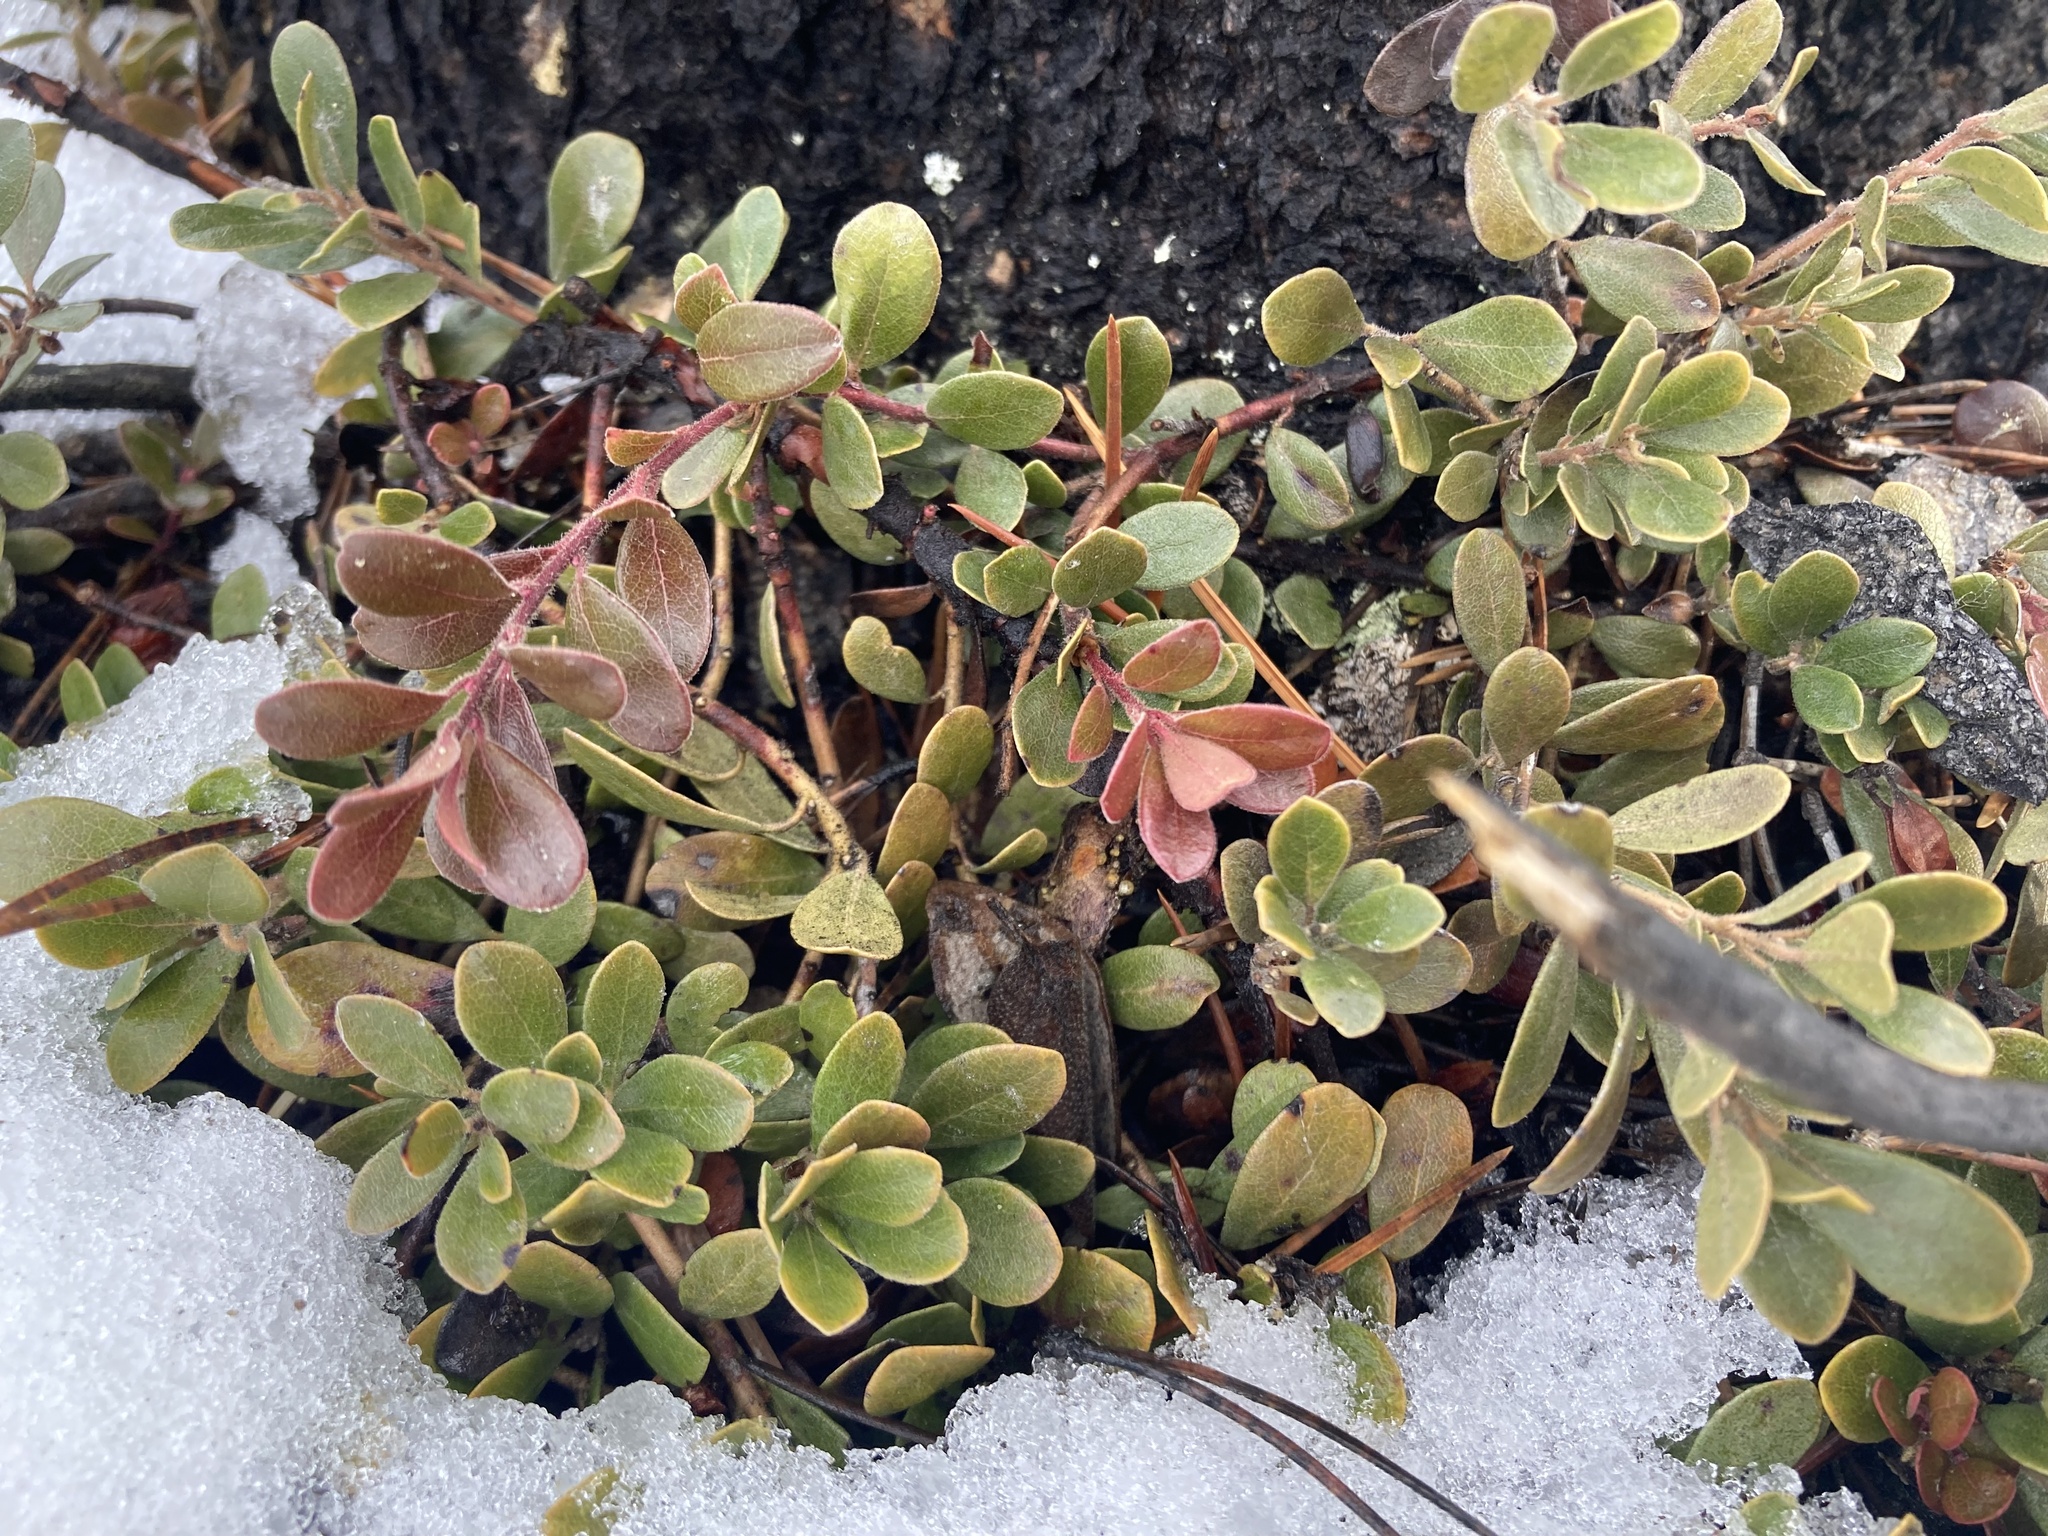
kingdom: Plantae
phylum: Tracheophyta
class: Magnoliopsida
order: Ericales
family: Ericaceae
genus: Arctostaphylos
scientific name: Arctostaphylos uva-ursi
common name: Bearberry
